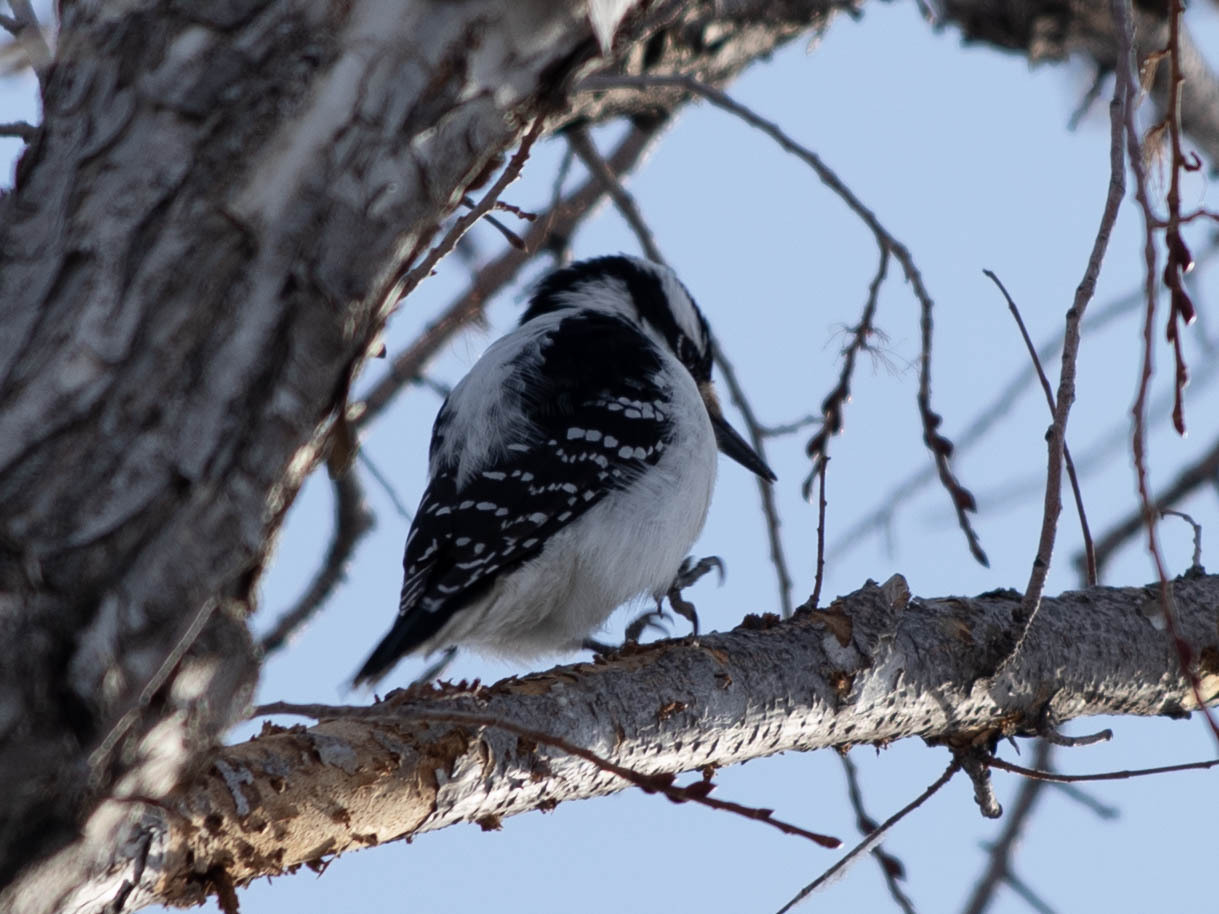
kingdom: Animalia
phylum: Chordata
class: Aves
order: Piciformes
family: Picidae
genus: Leuconotopicus
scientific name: Leuconotopicus villosus
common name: Hairy woodpecker
